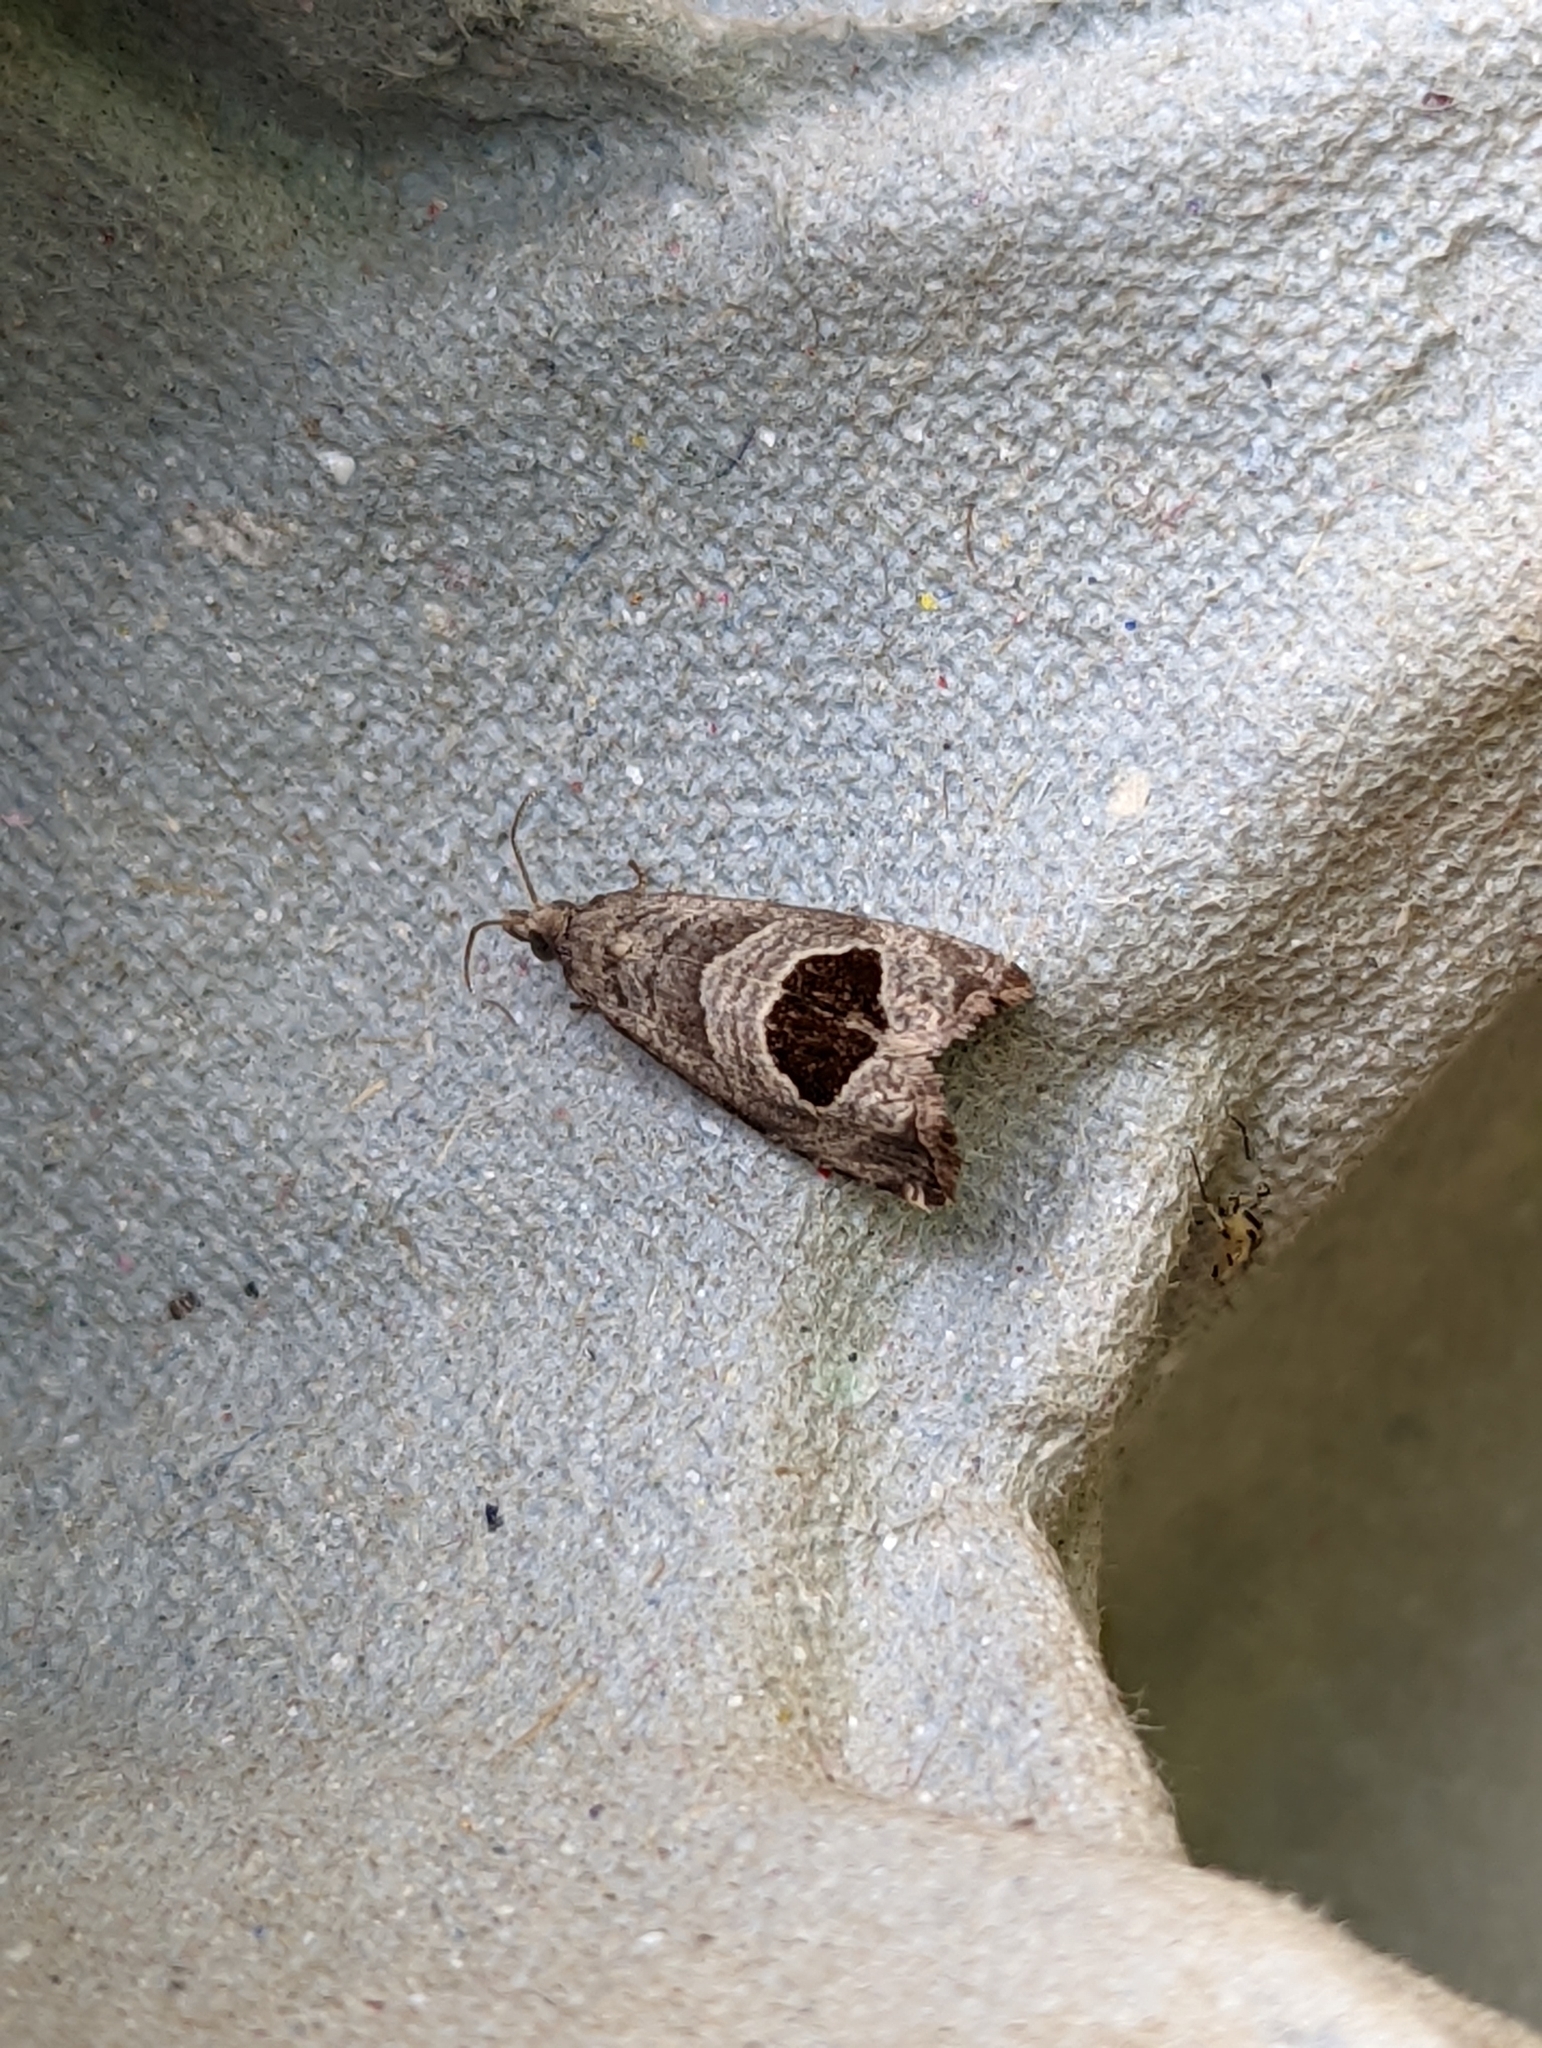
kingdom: Animalia
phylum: Arthropoda
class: Insecta
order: Lepidoptera
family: Tortricidae
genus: Notocelia
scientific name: Notocelia uddmanniana
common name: Bramble shoot moth
